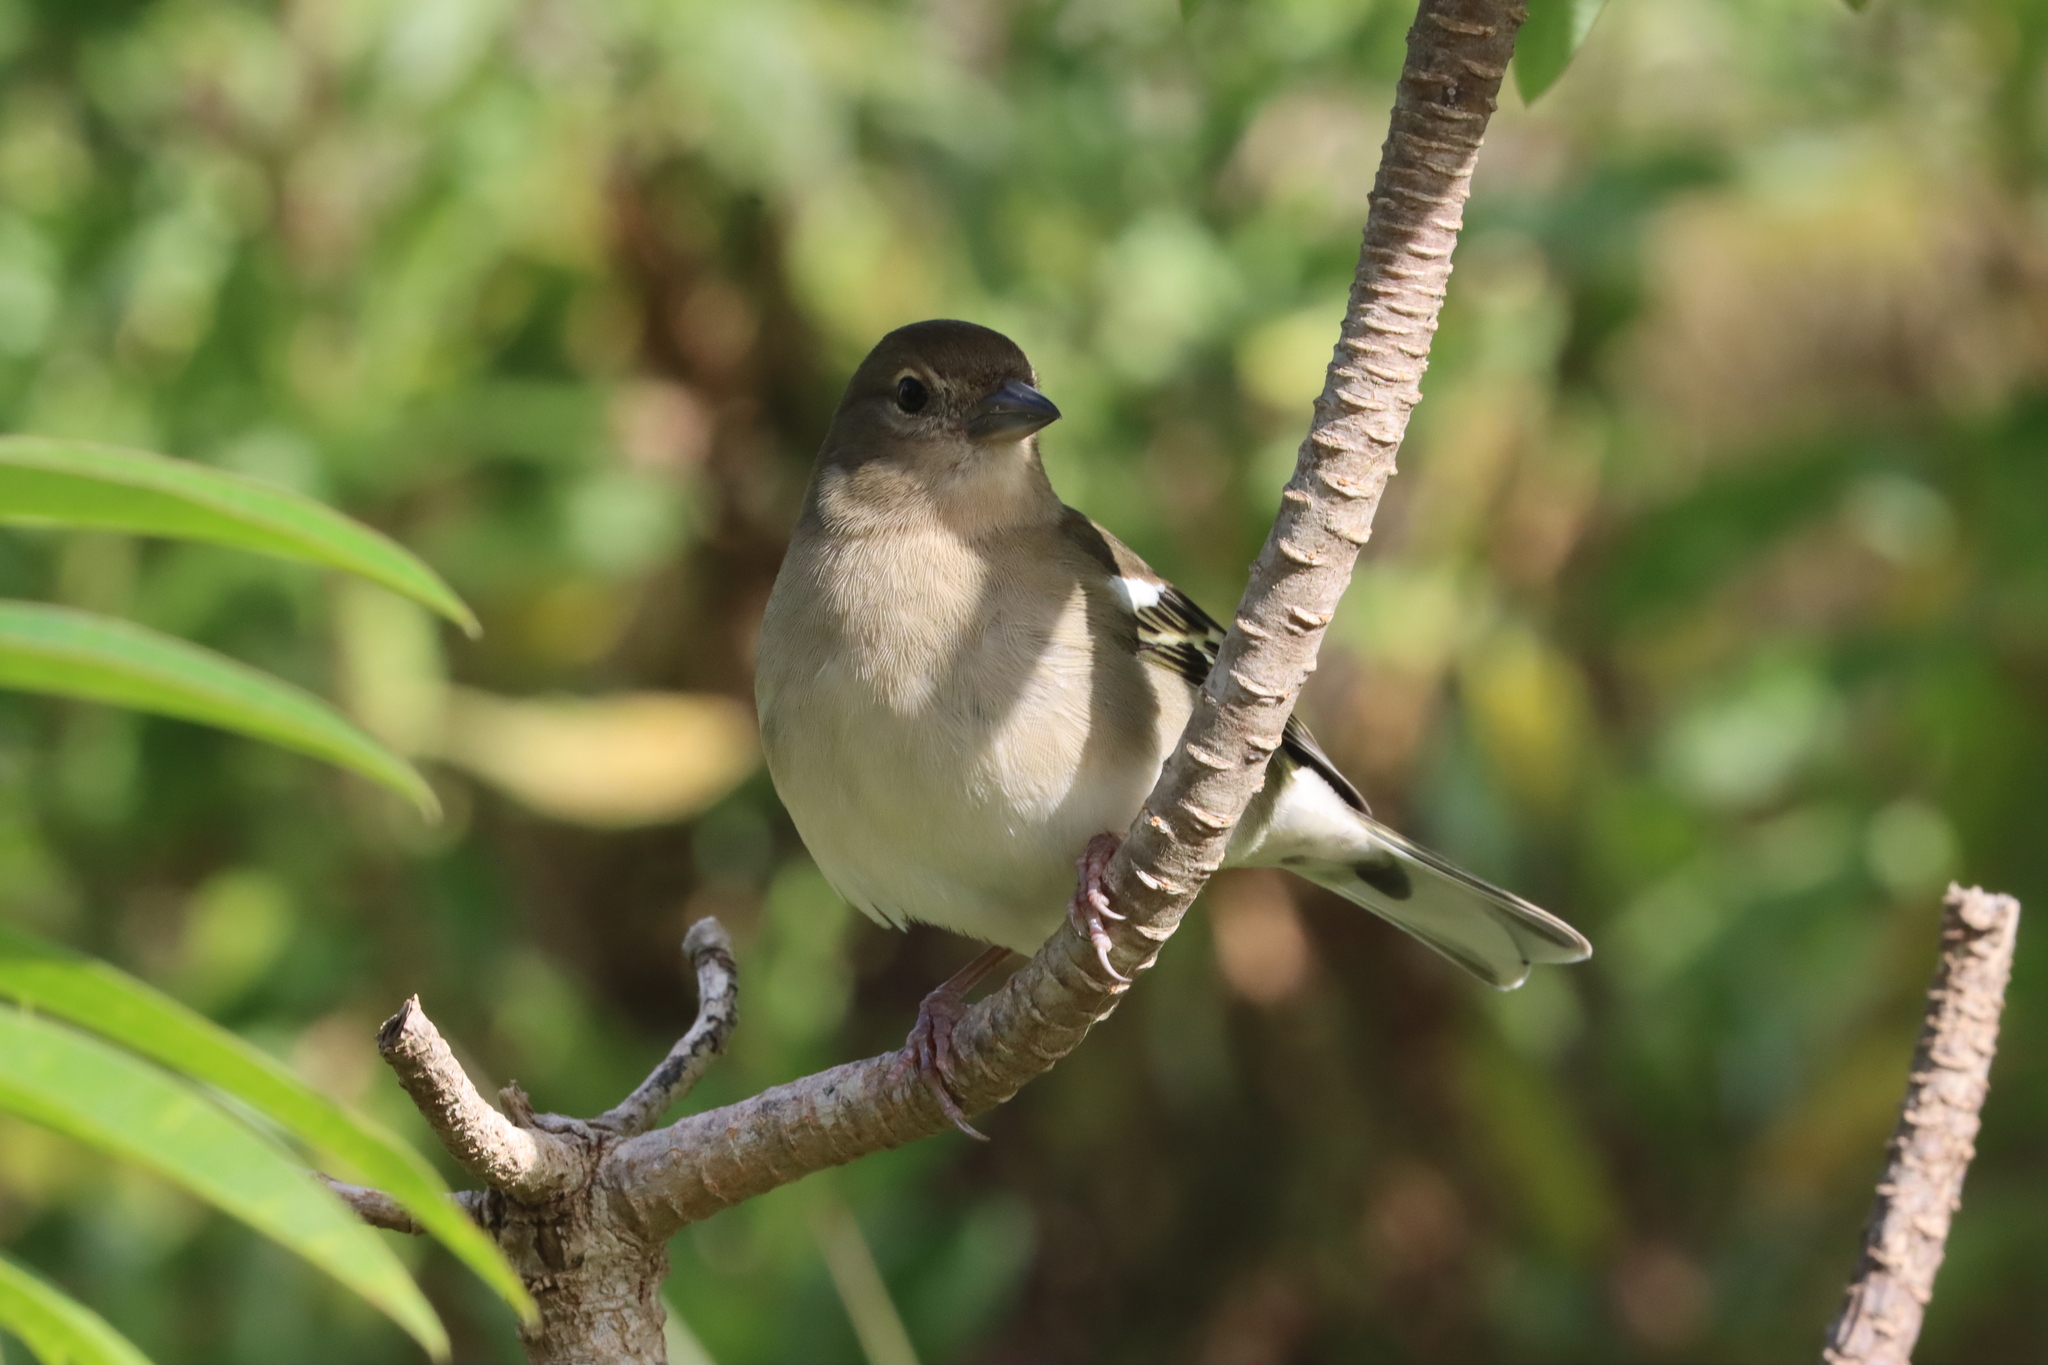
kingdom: Animalia
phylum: Chordata
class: Aves
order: Passeriformes
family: Fringillidae
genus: Fringilla
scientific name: Fringilla maderensis
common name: Madeira chaffinch
